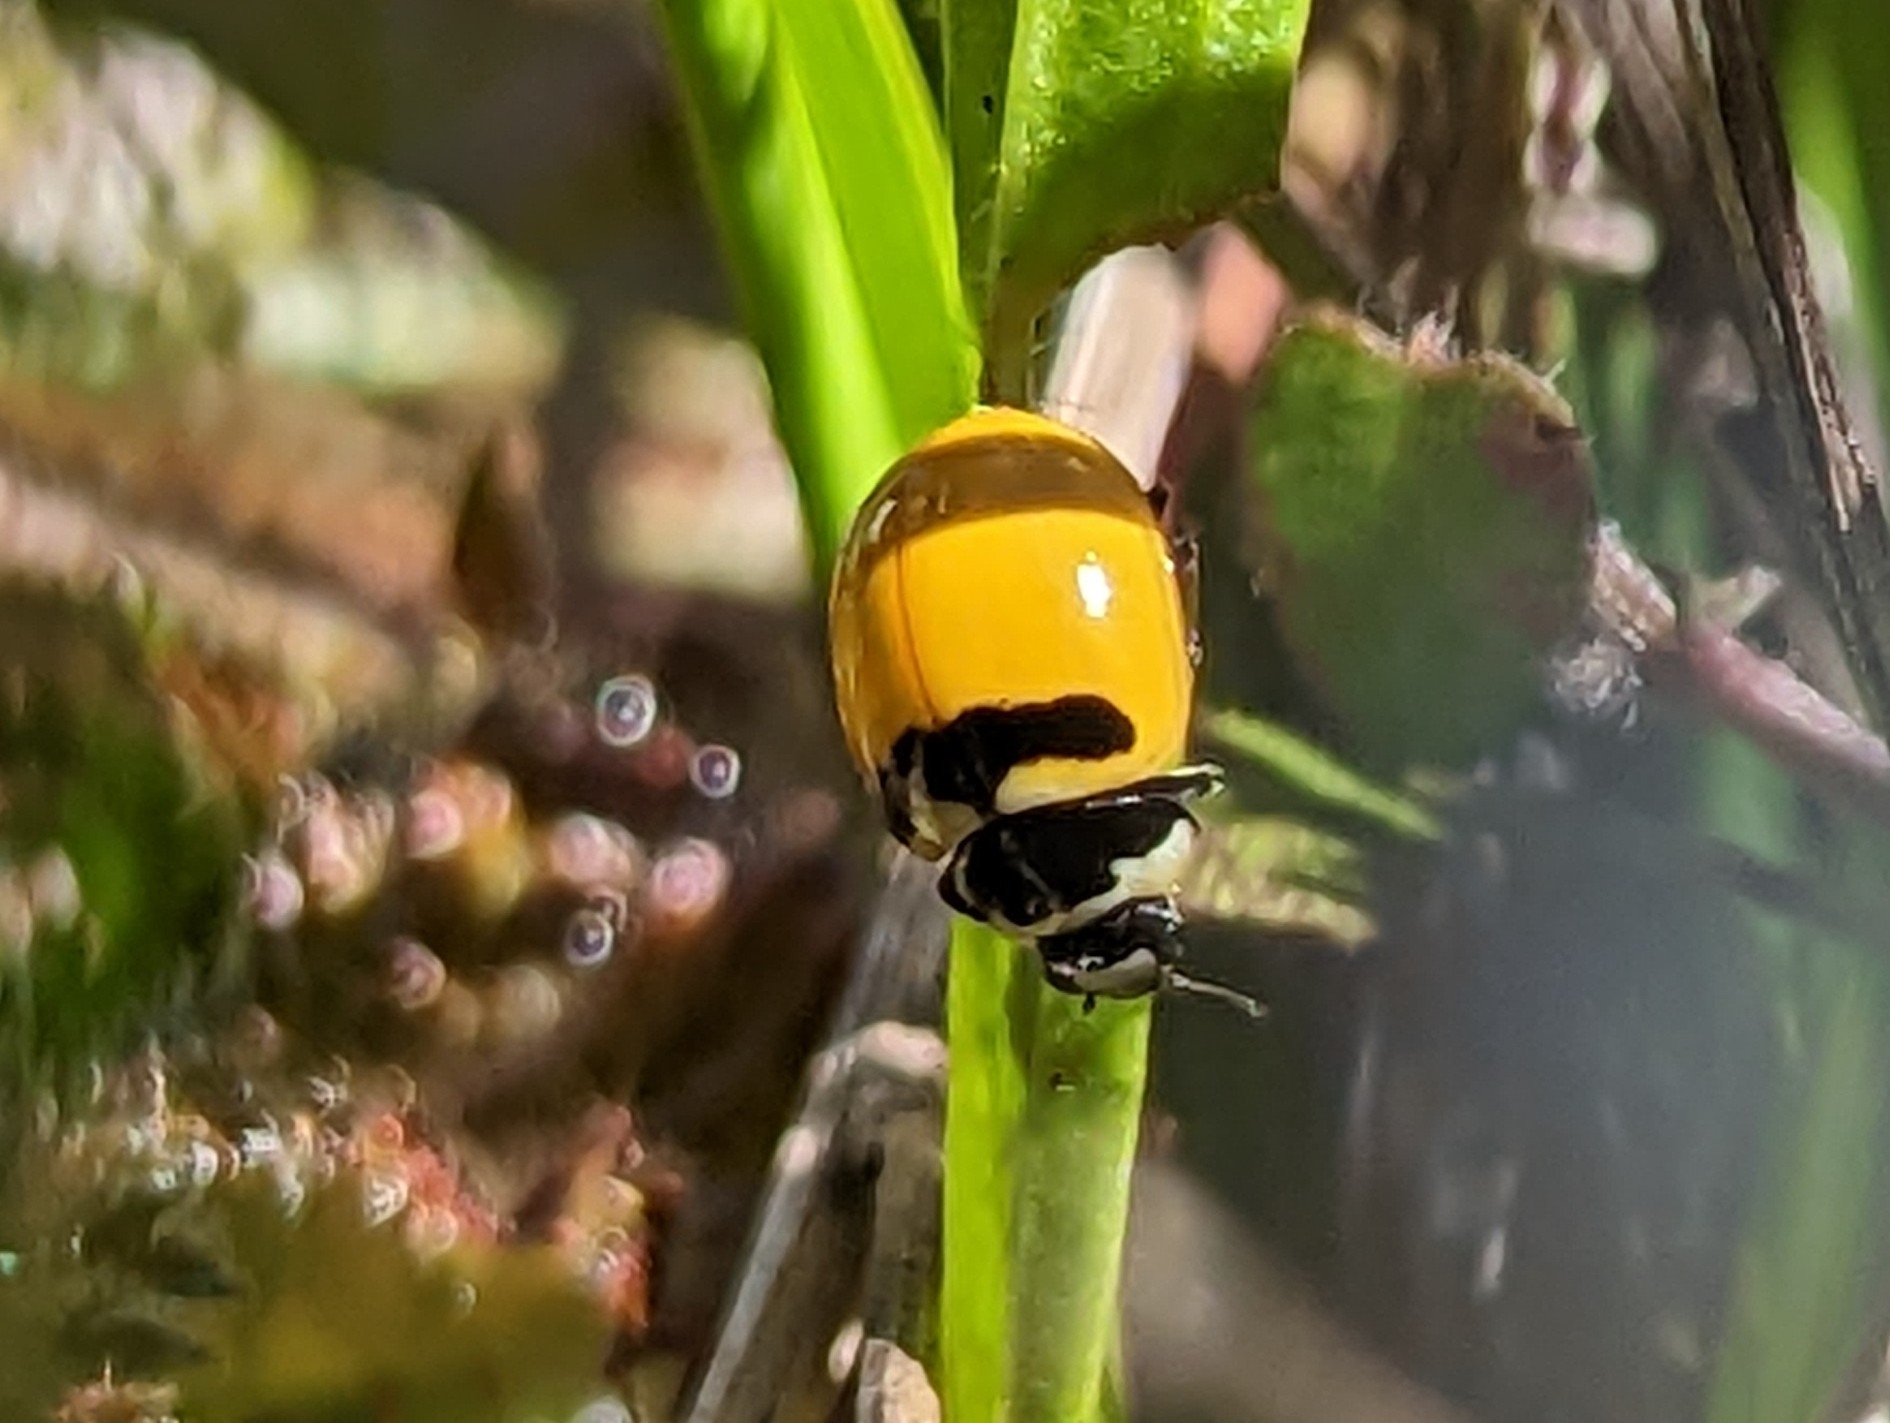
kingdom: Animalia
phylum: Arthropoda
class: Insecta
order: Coleoptera
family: Coccinellidae
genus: Coccinella
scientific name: Coccinella trifasciata
